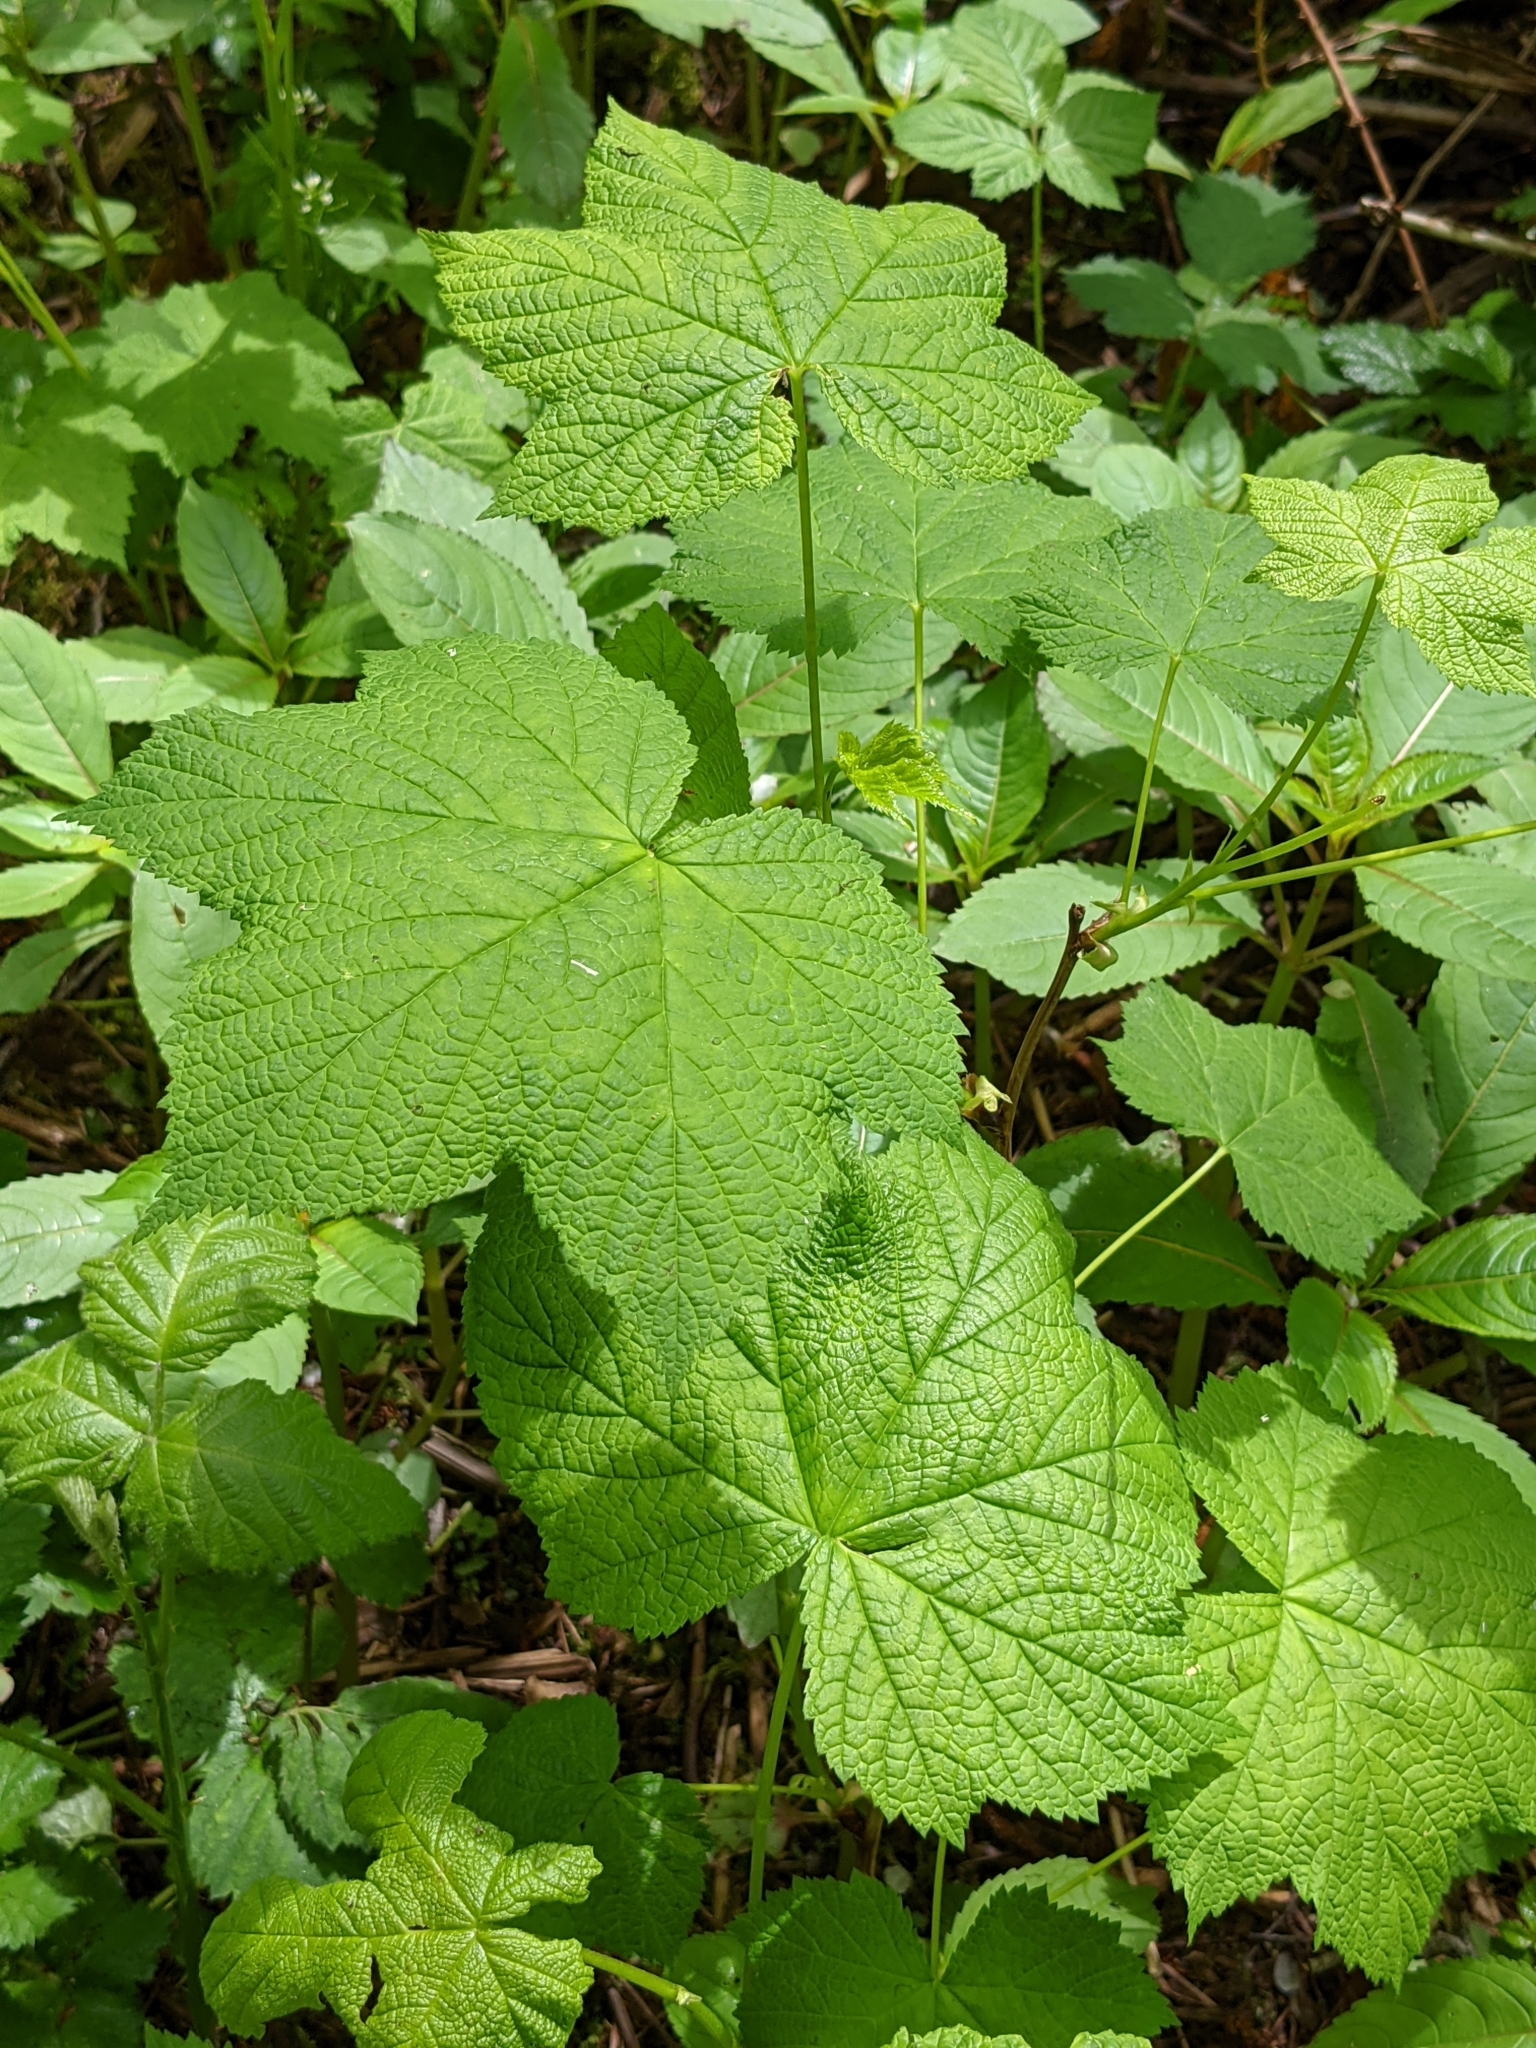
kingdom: Plantae
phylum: Tracheophyta
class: Magnoliopsida
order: Rosales
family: Rosaceae
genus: Rubus
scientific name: Rubus parviflorus
